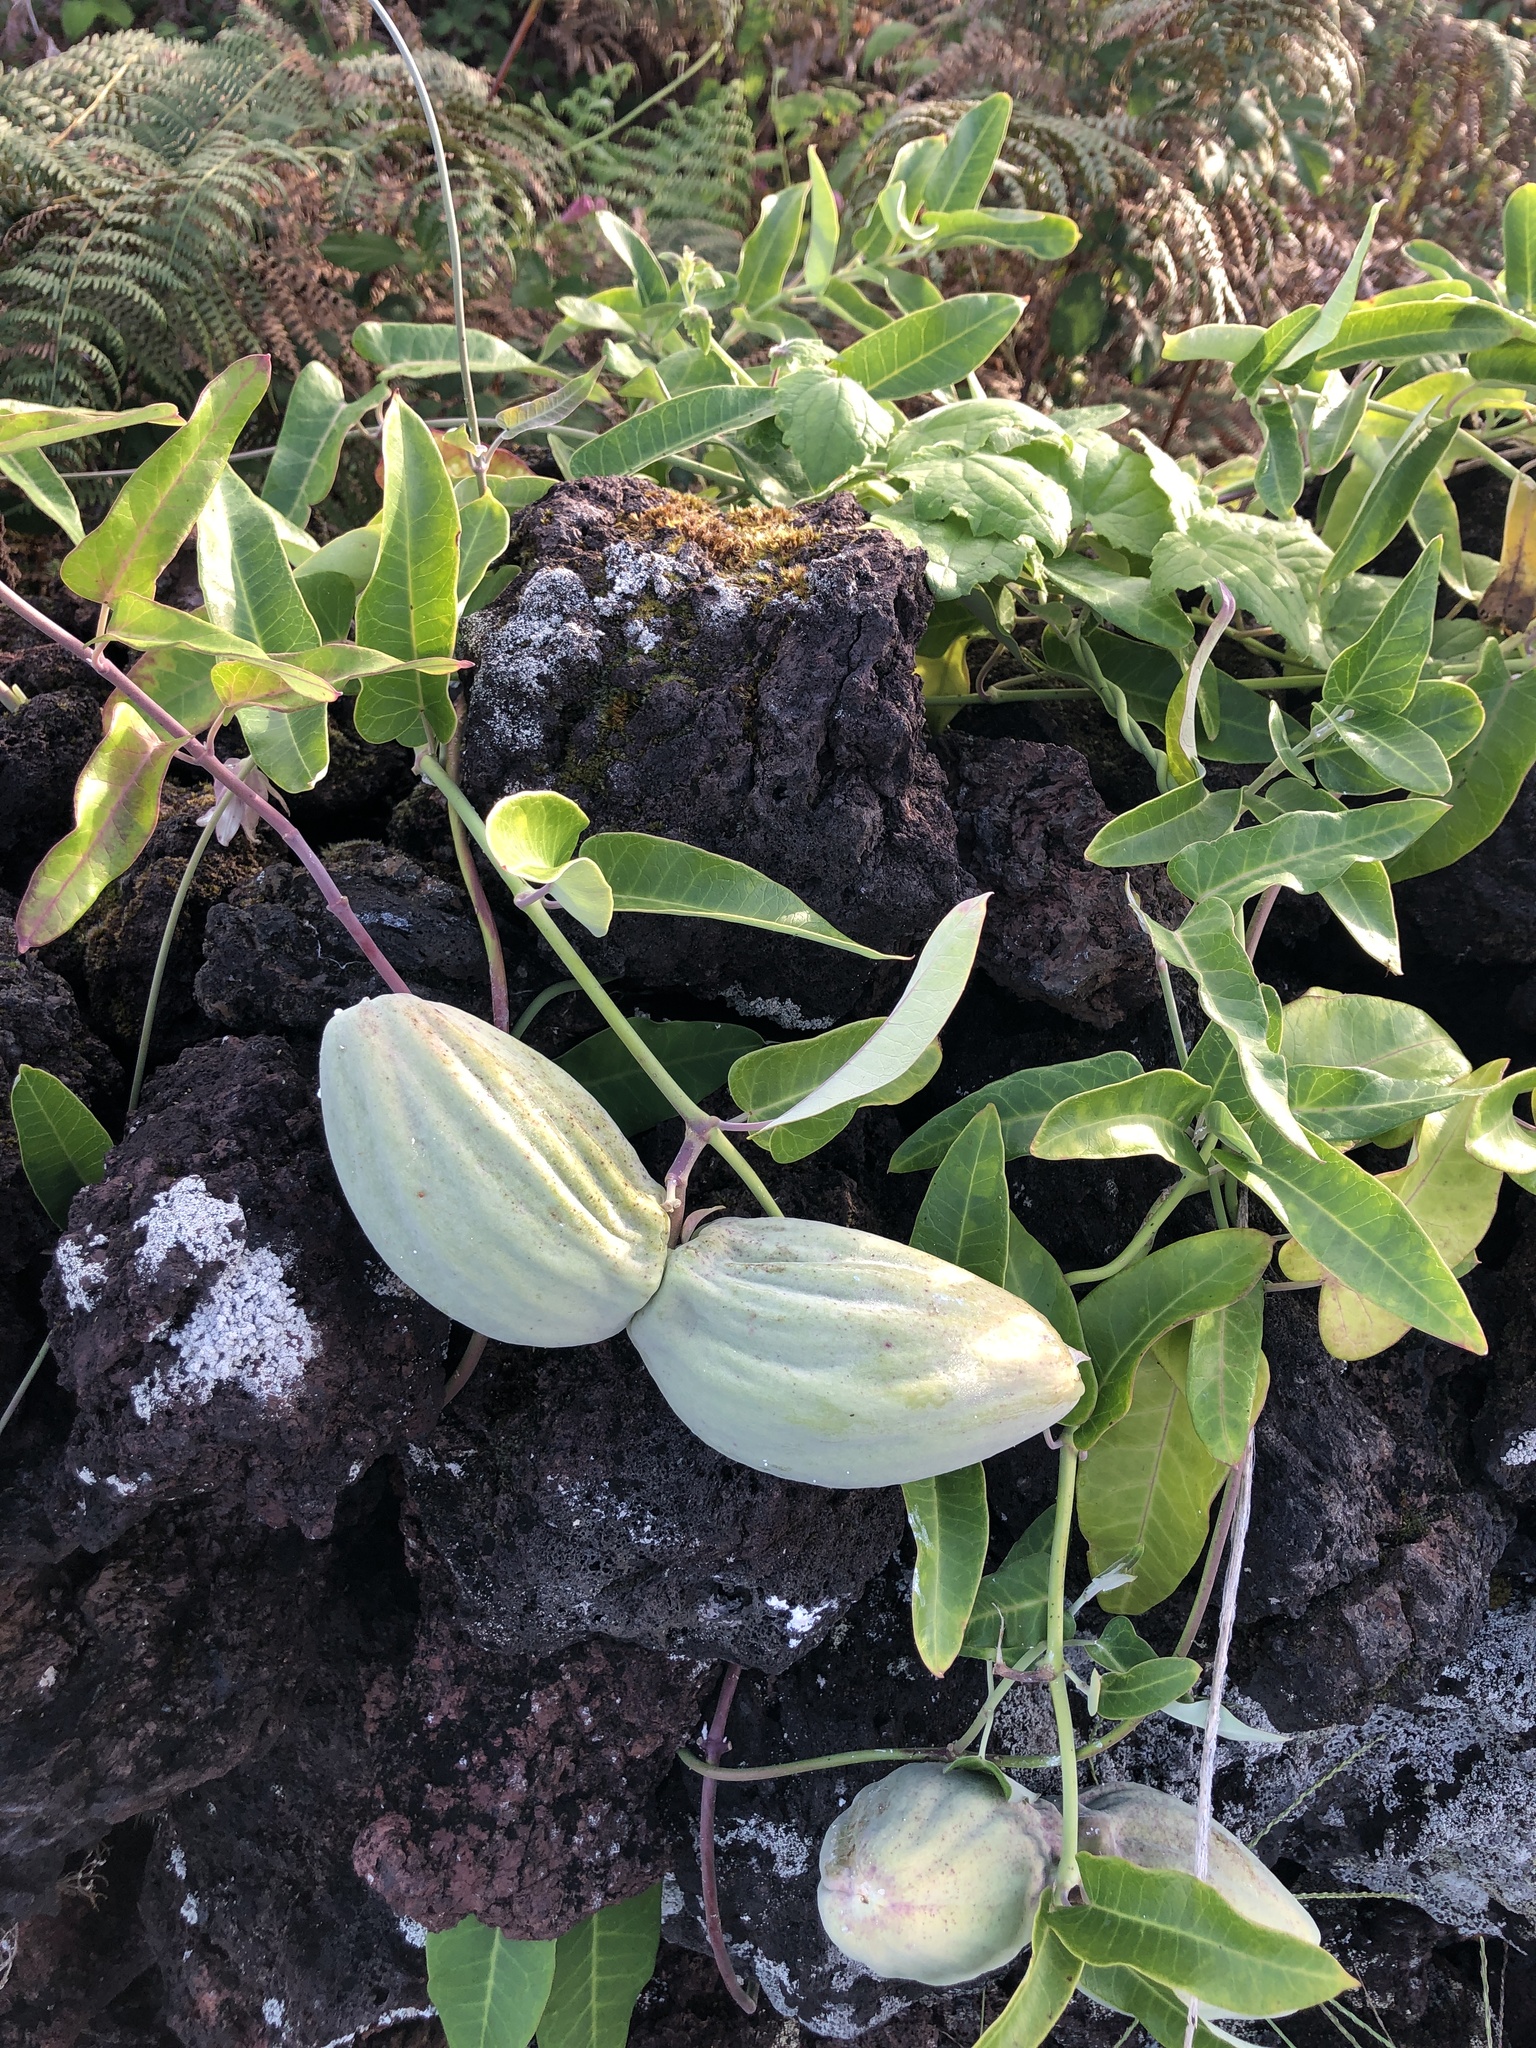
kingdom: Plantae
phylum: Tracheophyta
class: Magnoliopsida
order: Gentianales
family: Apocynaceae
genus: Araujia
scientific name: Araujia sericifera
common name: White bladderflower
